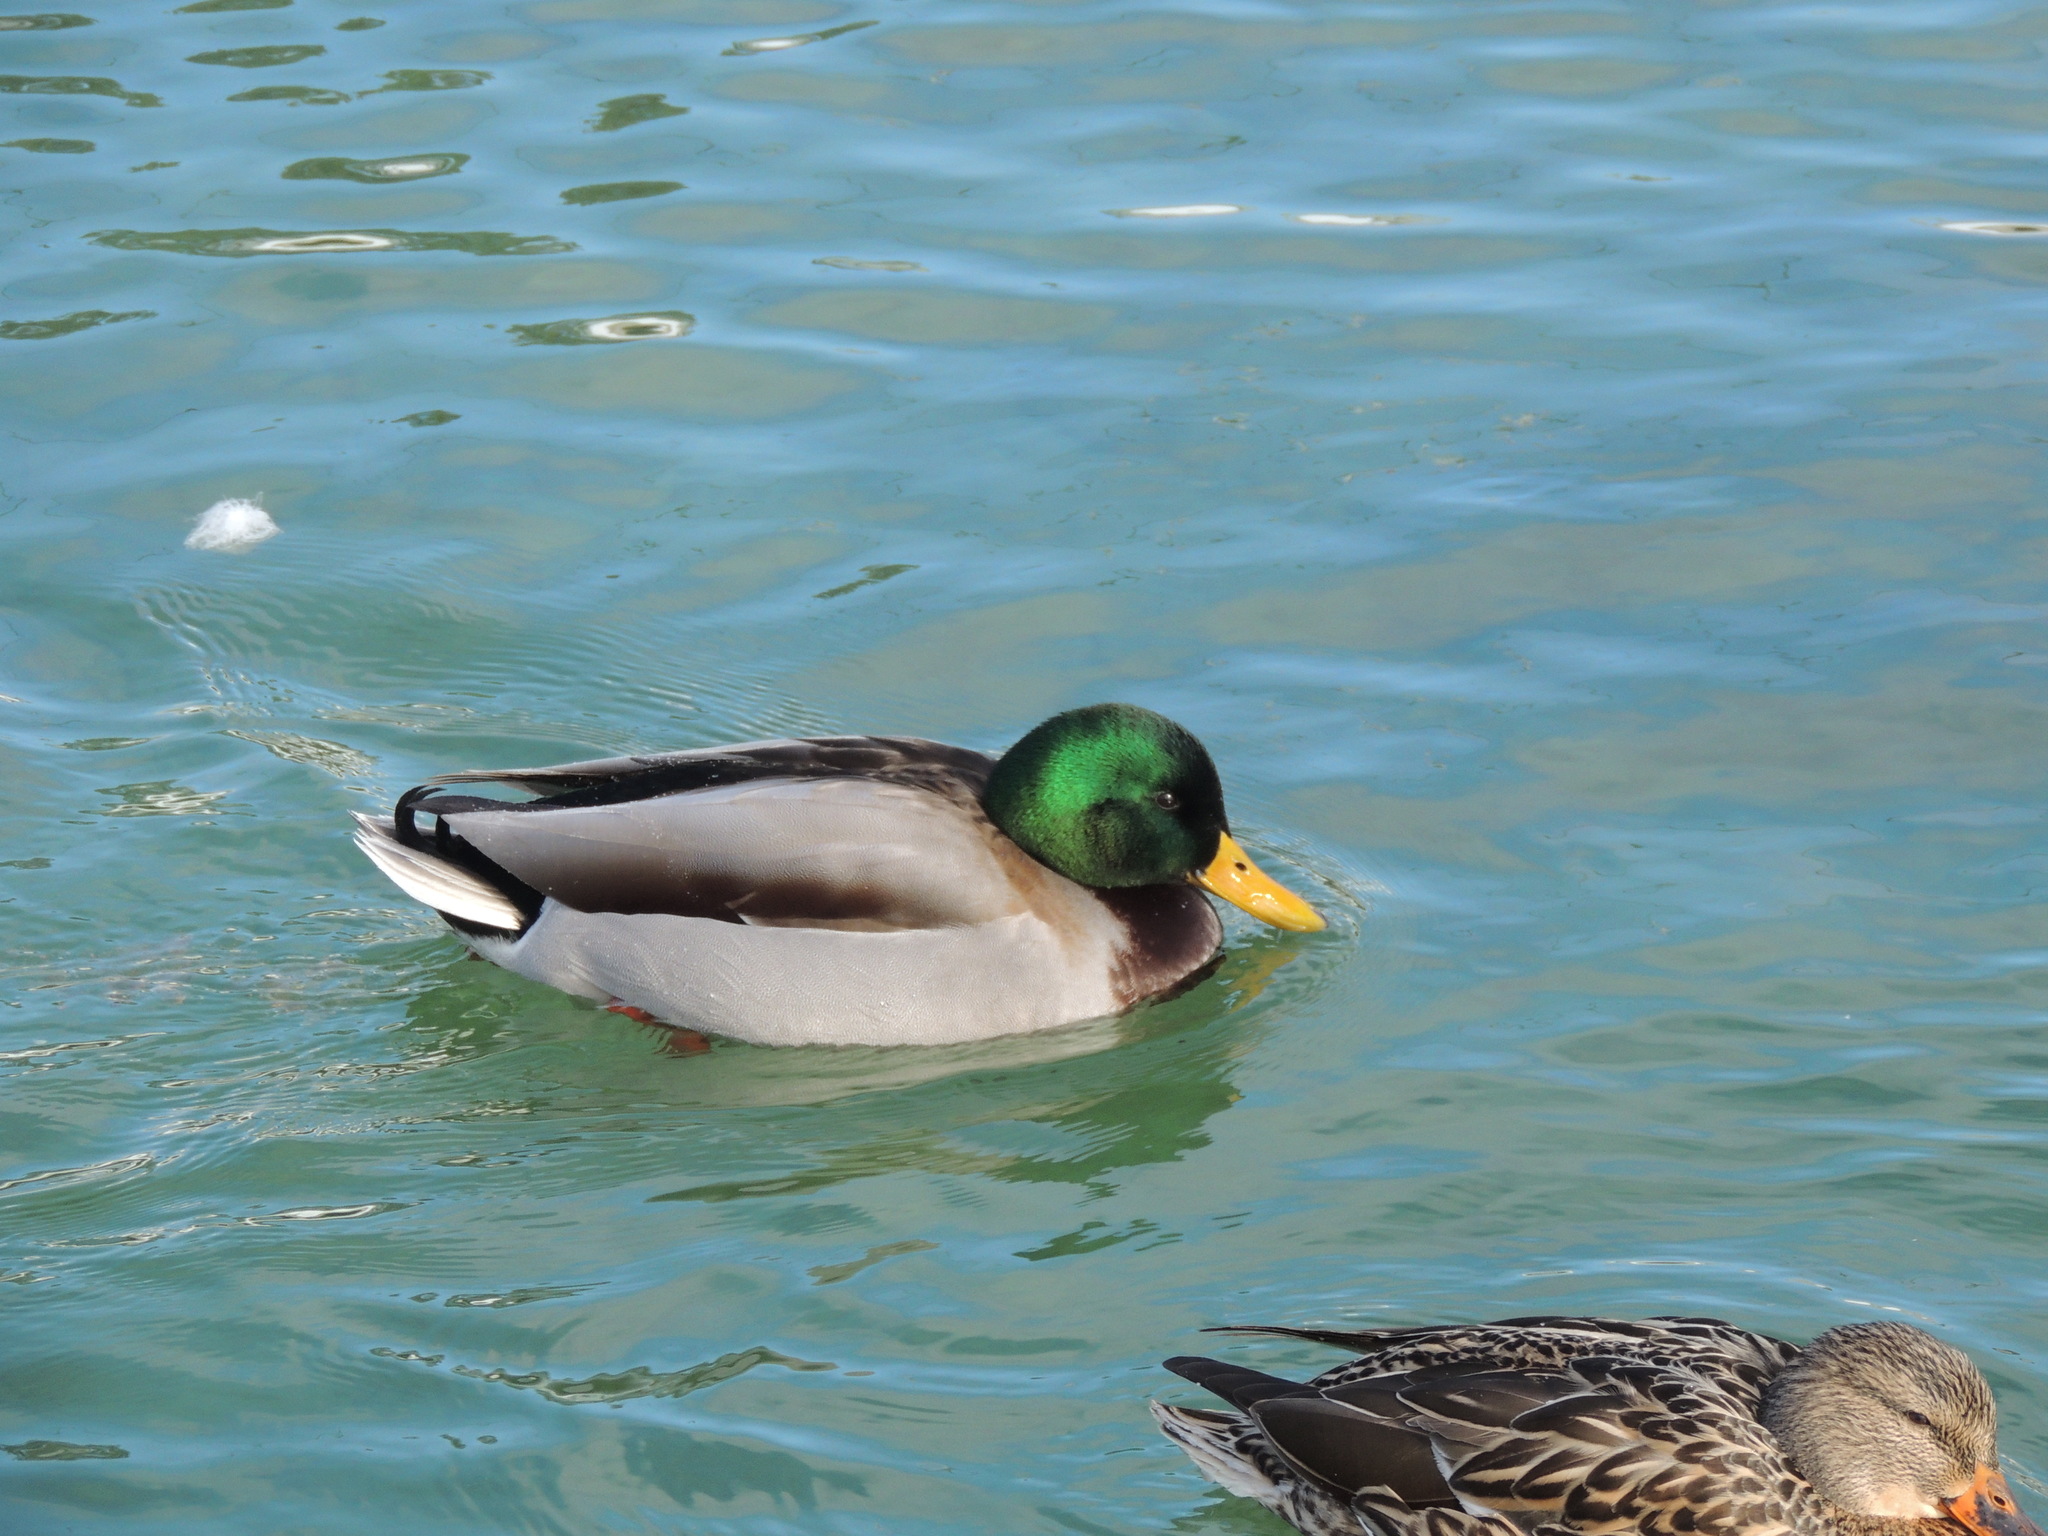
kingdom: Animalia
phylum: Chordata
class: Aves
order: Anseriformes
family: Anatidae
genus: Anas
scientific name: Anas platyrhynchos
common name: Mallard
